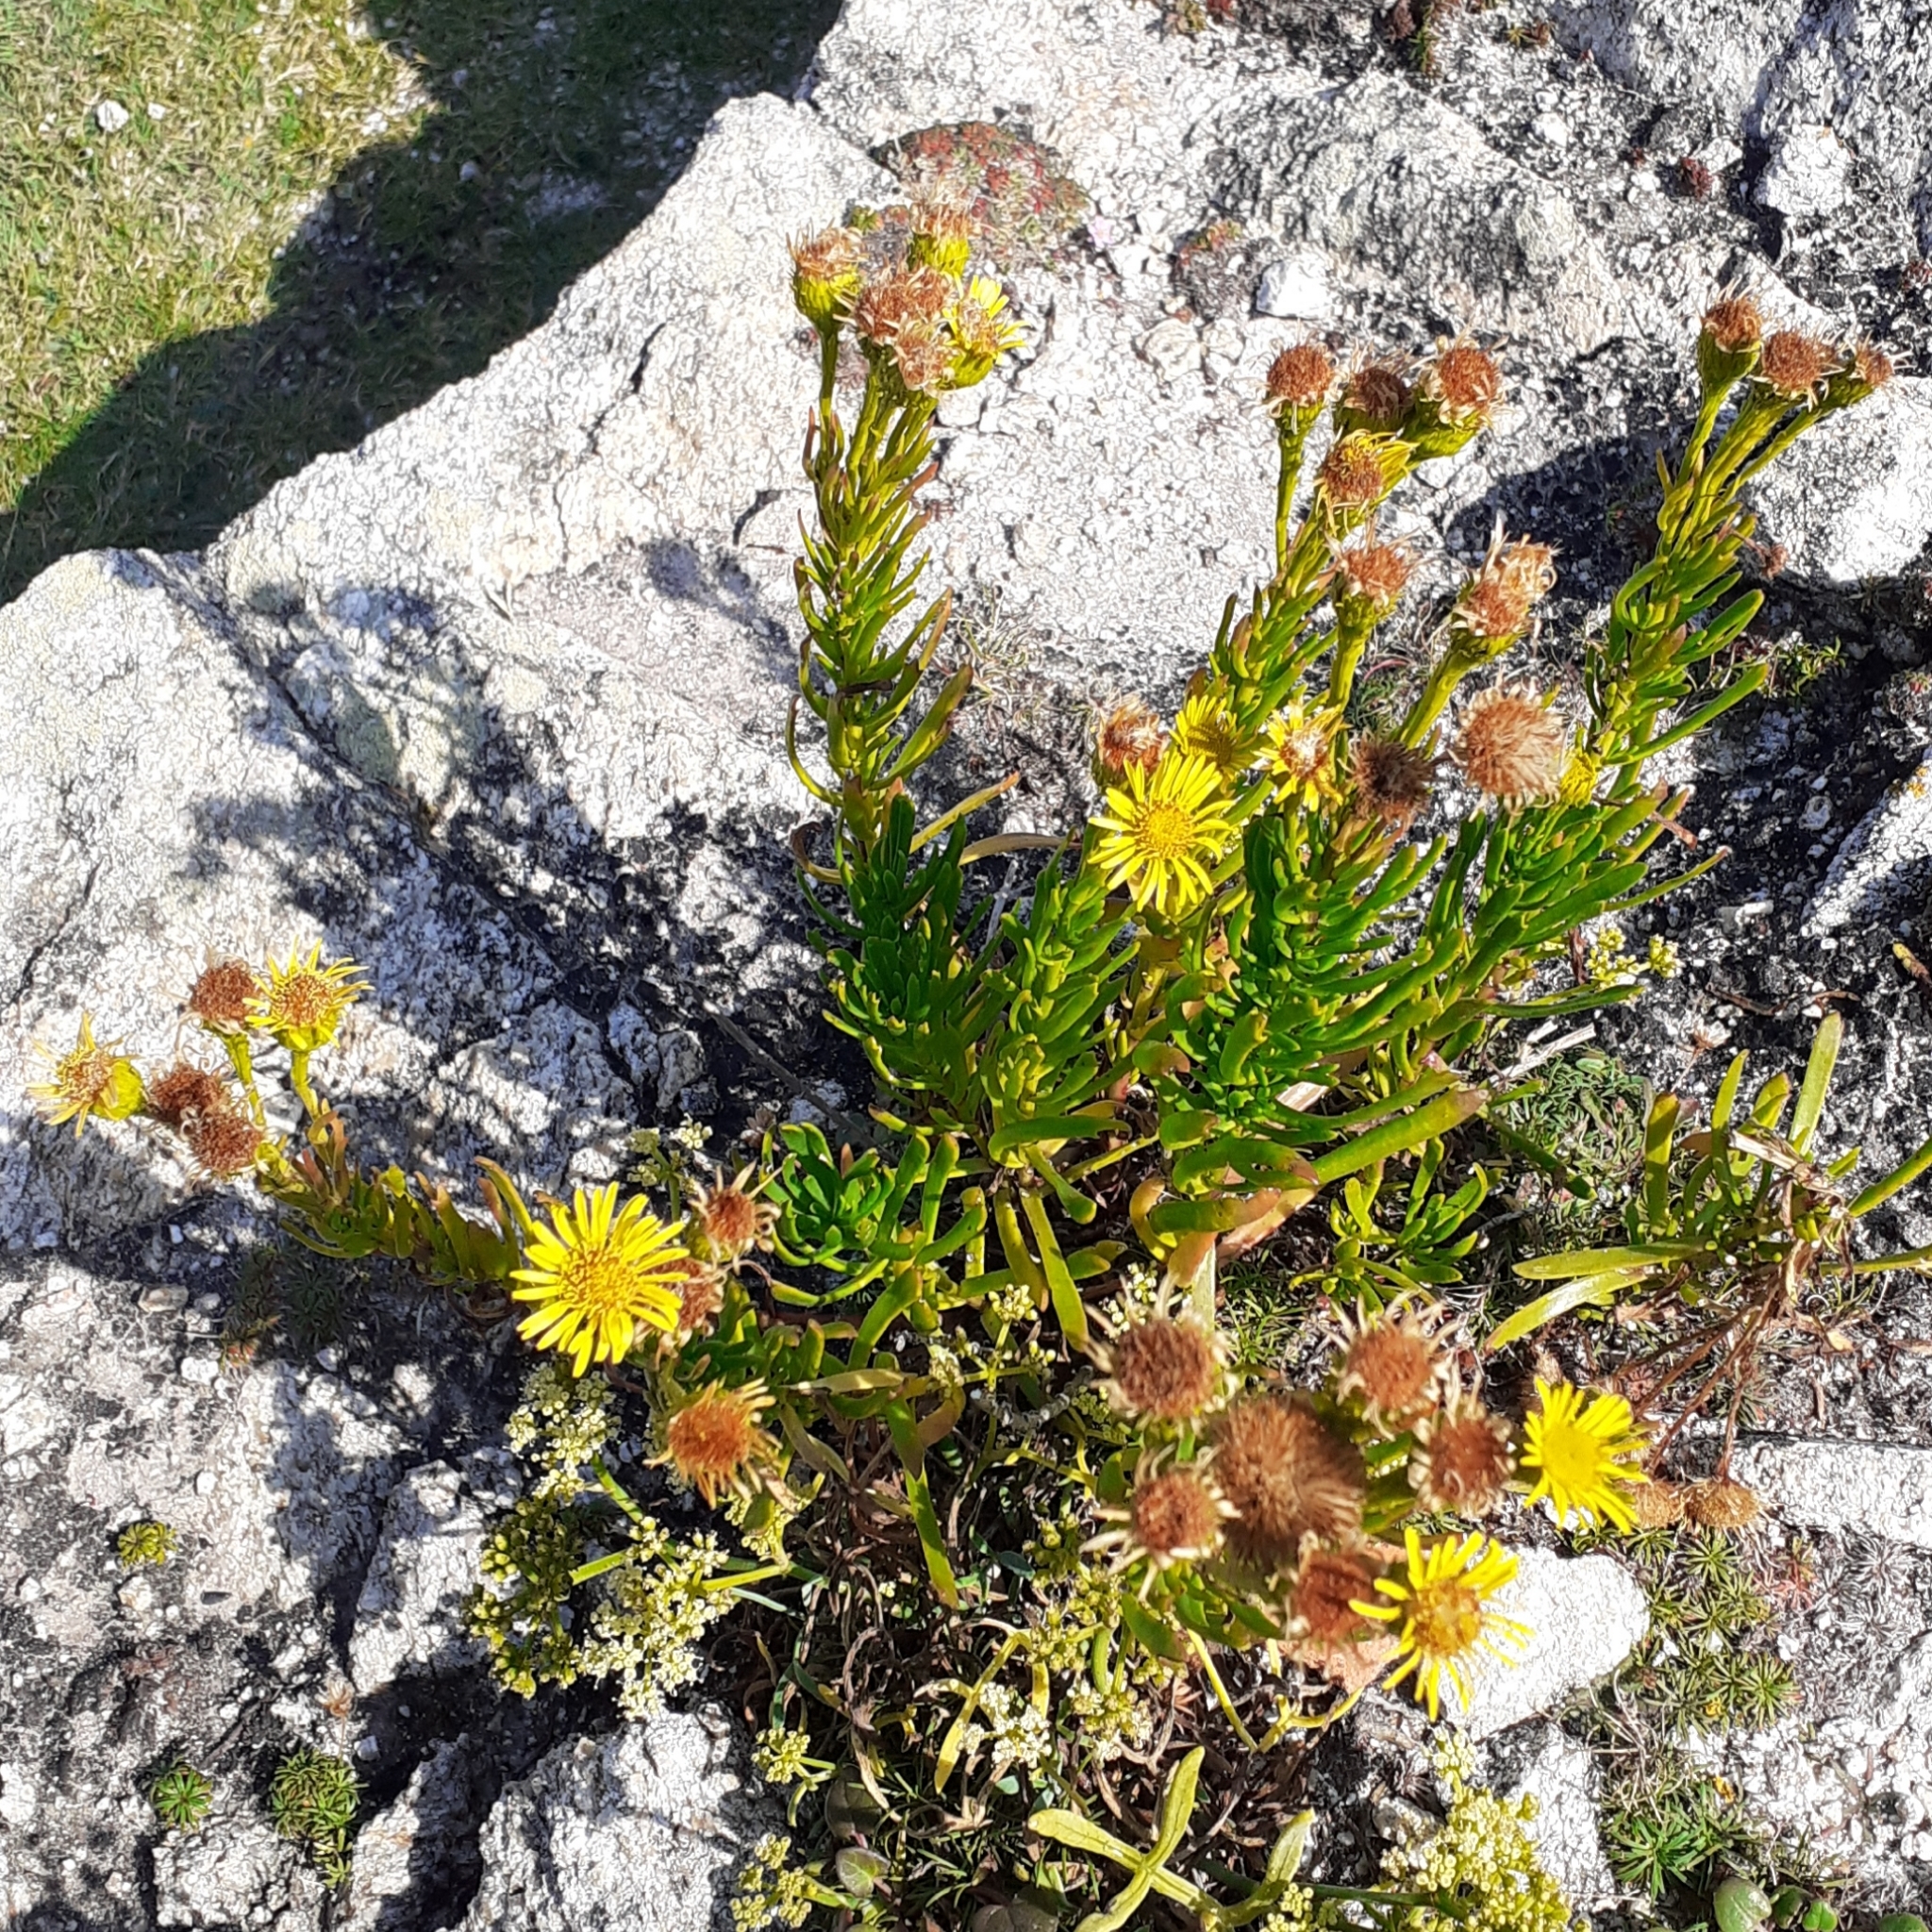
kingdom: Plantae
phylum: Tracheophyta
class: Magnoliopsida
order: Asterales
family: Asteraceae
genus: Limbarda
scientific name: Limbarda crithmoides
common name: Golden samphire
